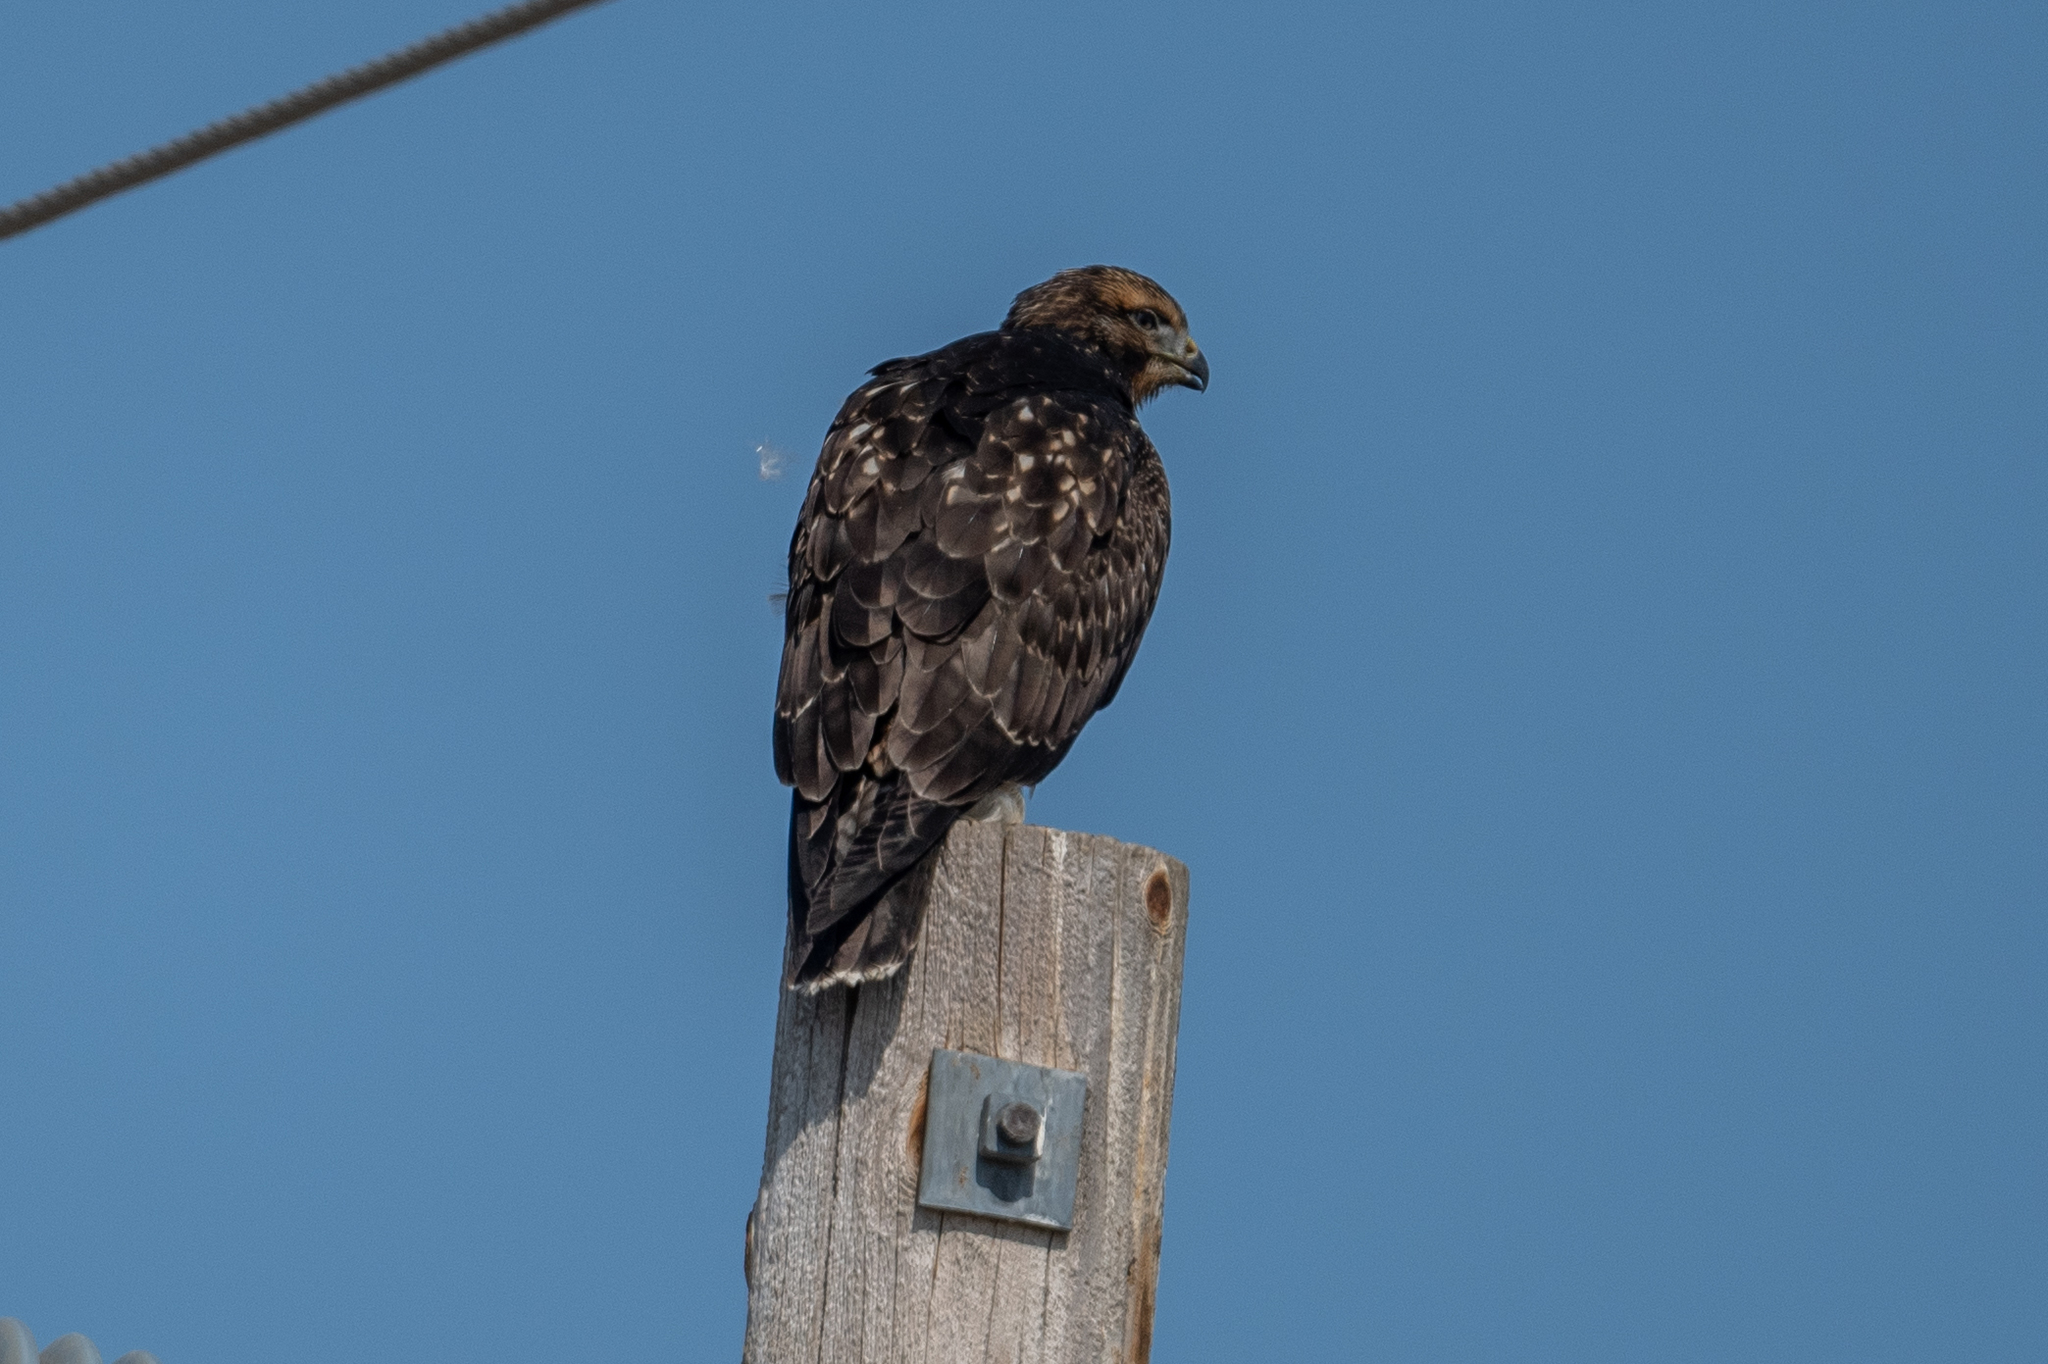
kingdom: Animalia
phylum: Chordata
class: Aves
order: Accipitriformes
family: Accipitridae
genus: Buteo
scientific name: Buteo swainsoni
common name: Swainson's hawk
